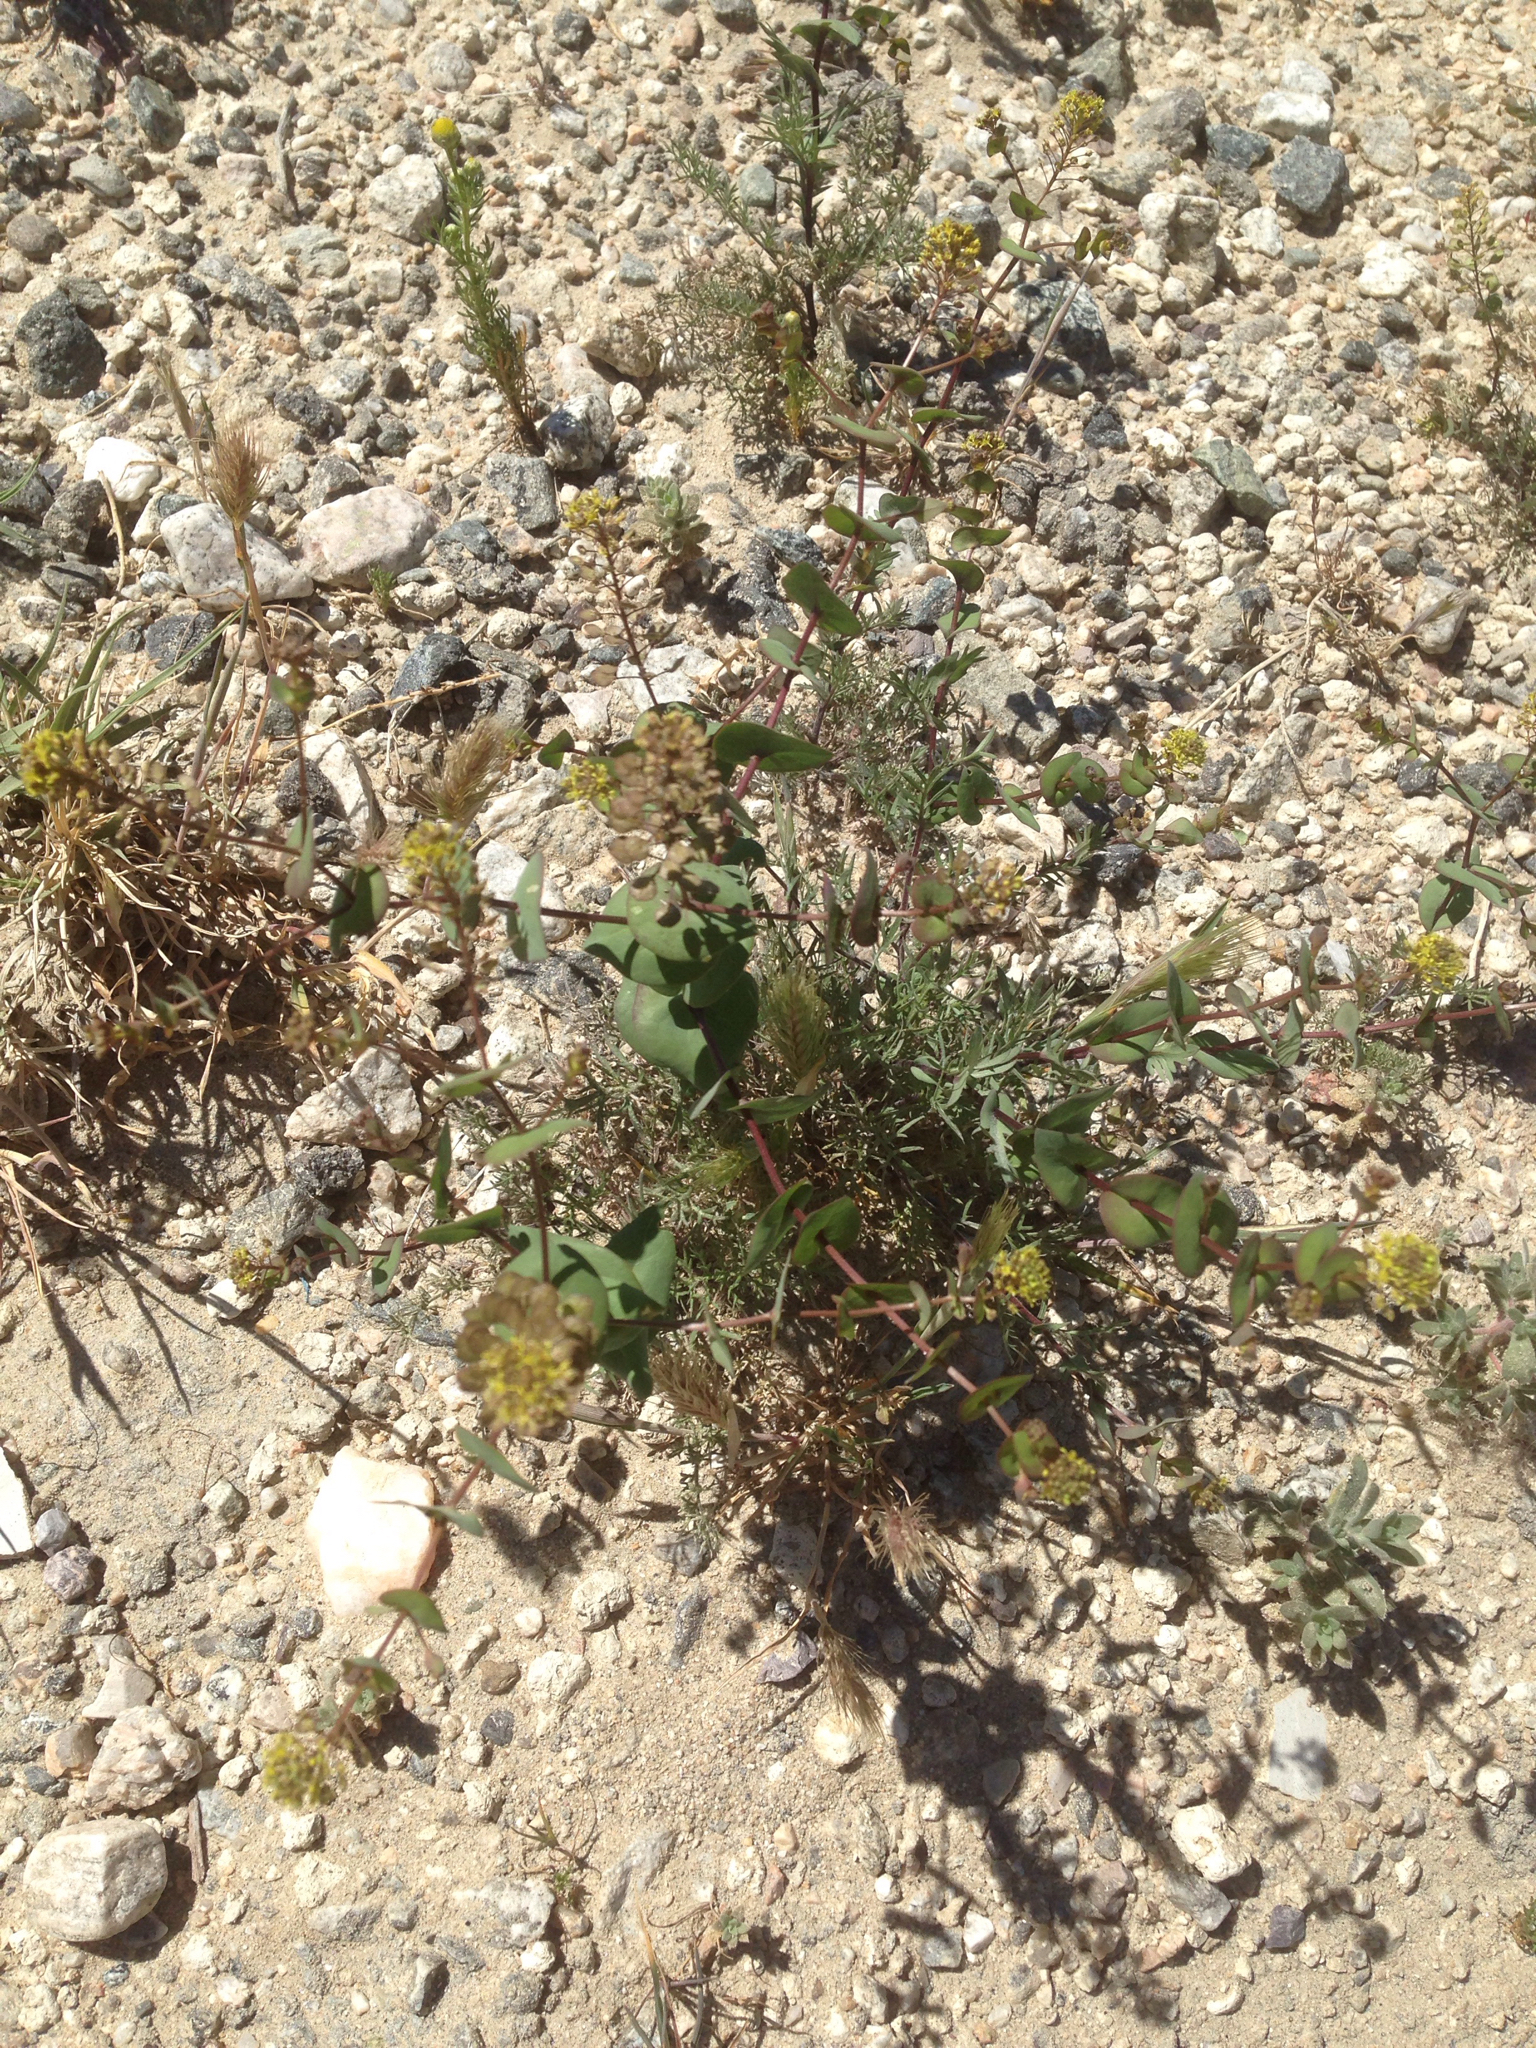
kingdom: Plantae
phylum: Tracheophyta
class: Magnoliopsida
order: Brassicales
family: Brassicaceae
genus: Lepidium
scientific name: Lepidium perfoliatum
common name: Perfoliate pepperwort
